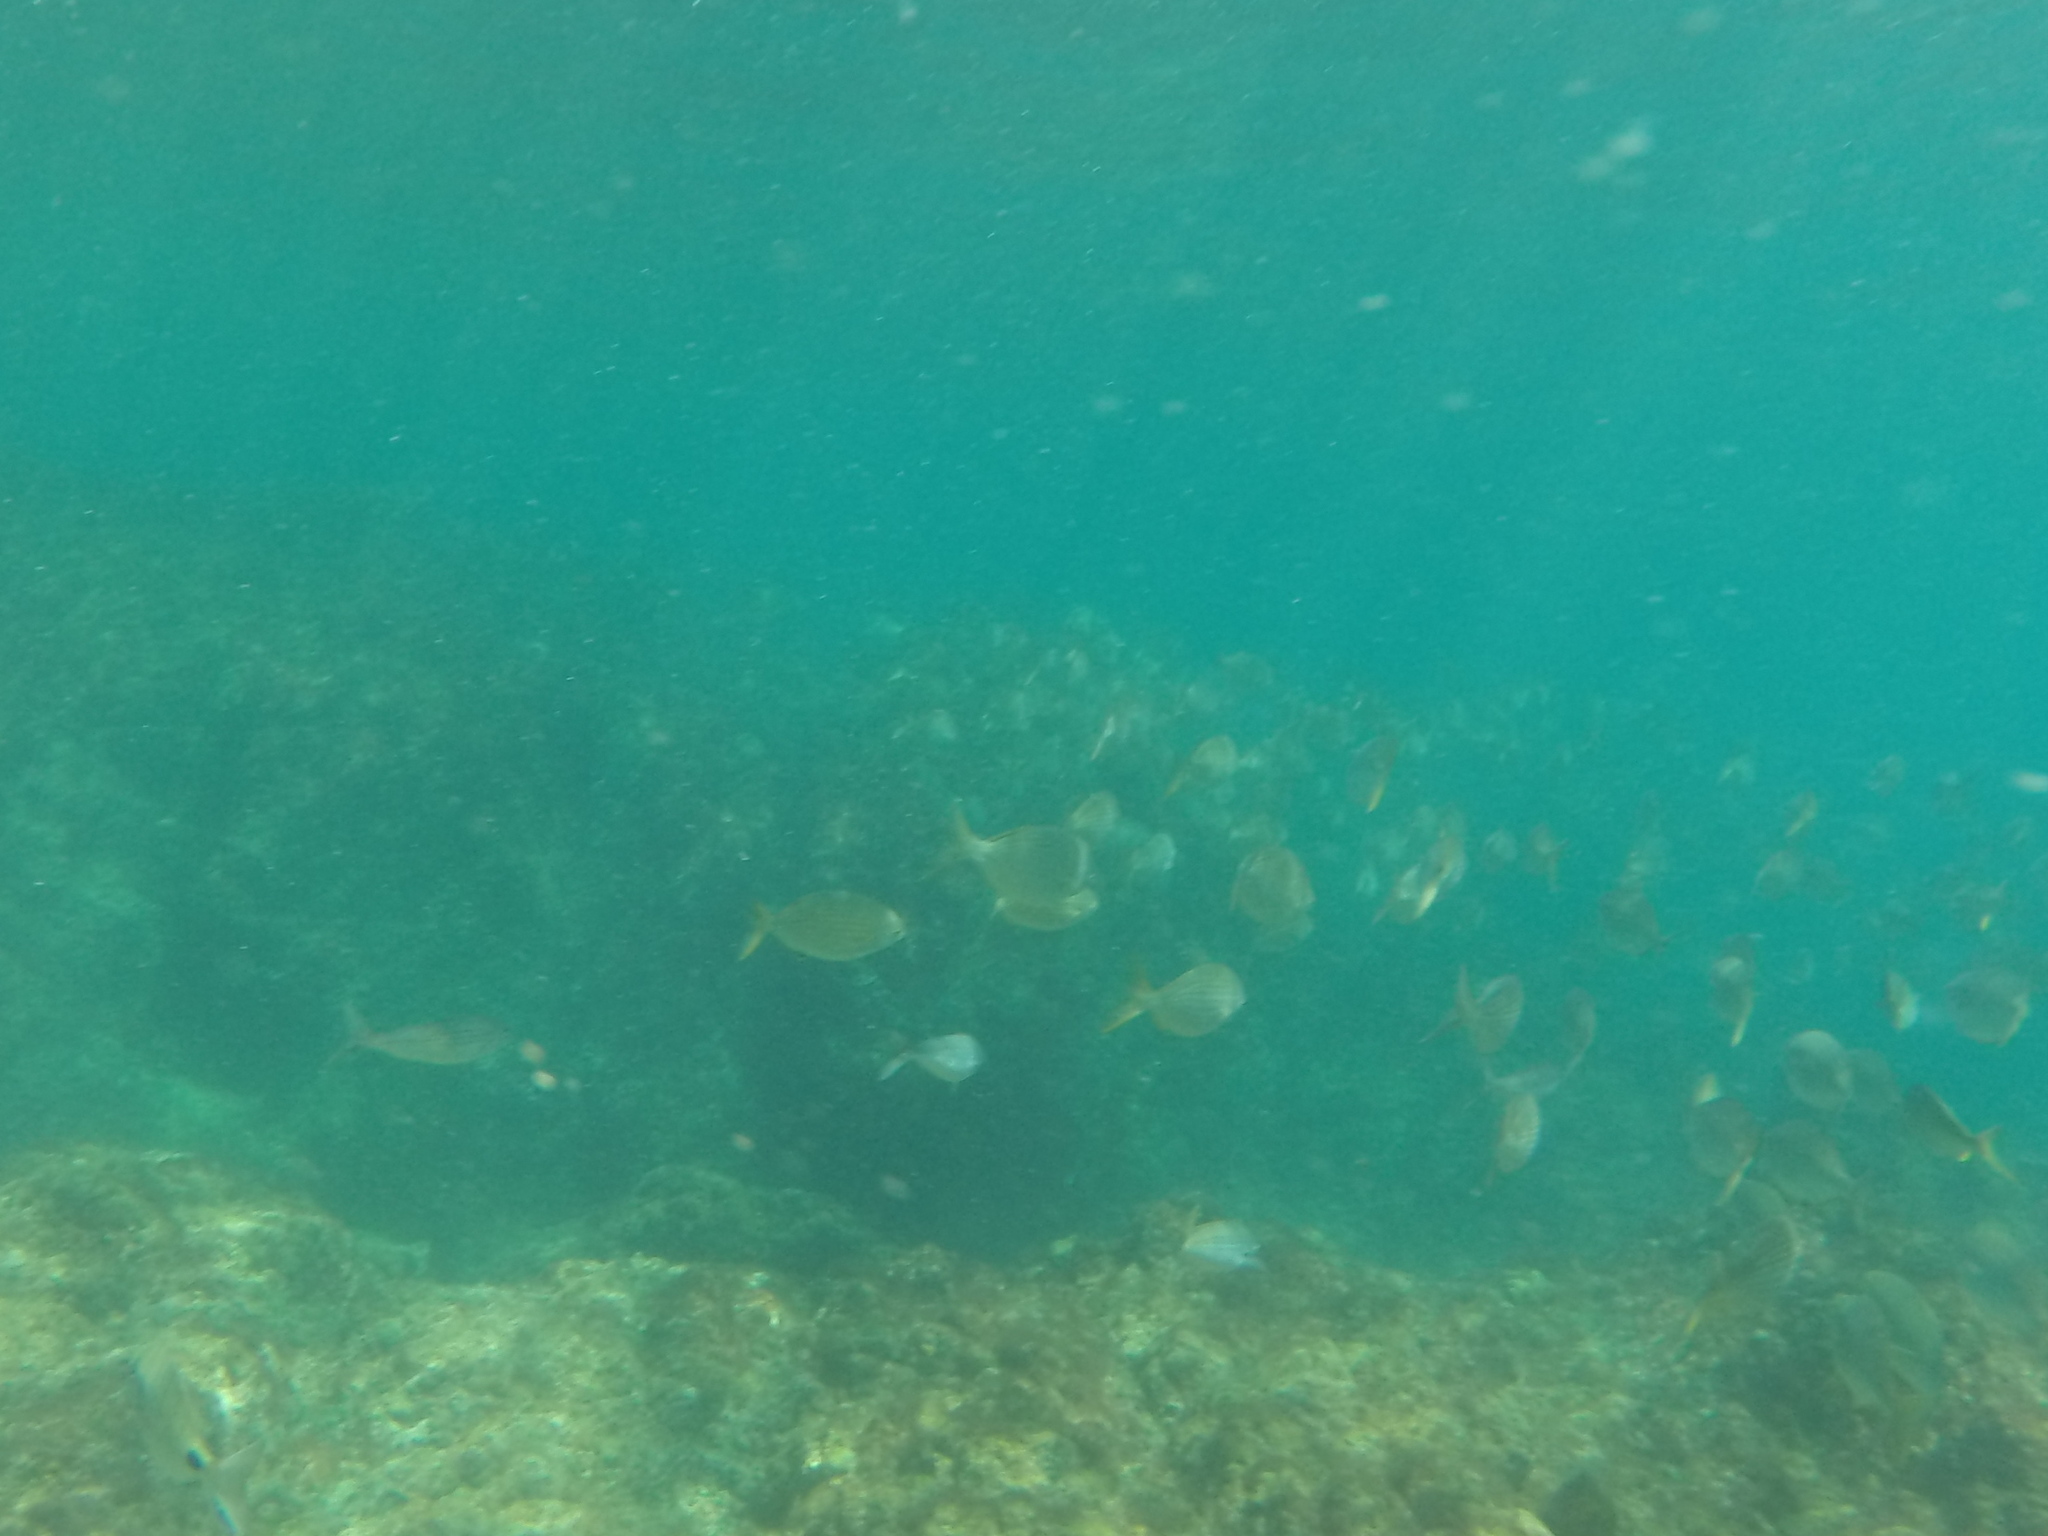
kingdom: Animalia
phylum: Chordata
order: Perciformes
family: Sparidae
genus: Sarpa
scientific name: Sarpa salpa
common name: Salema
